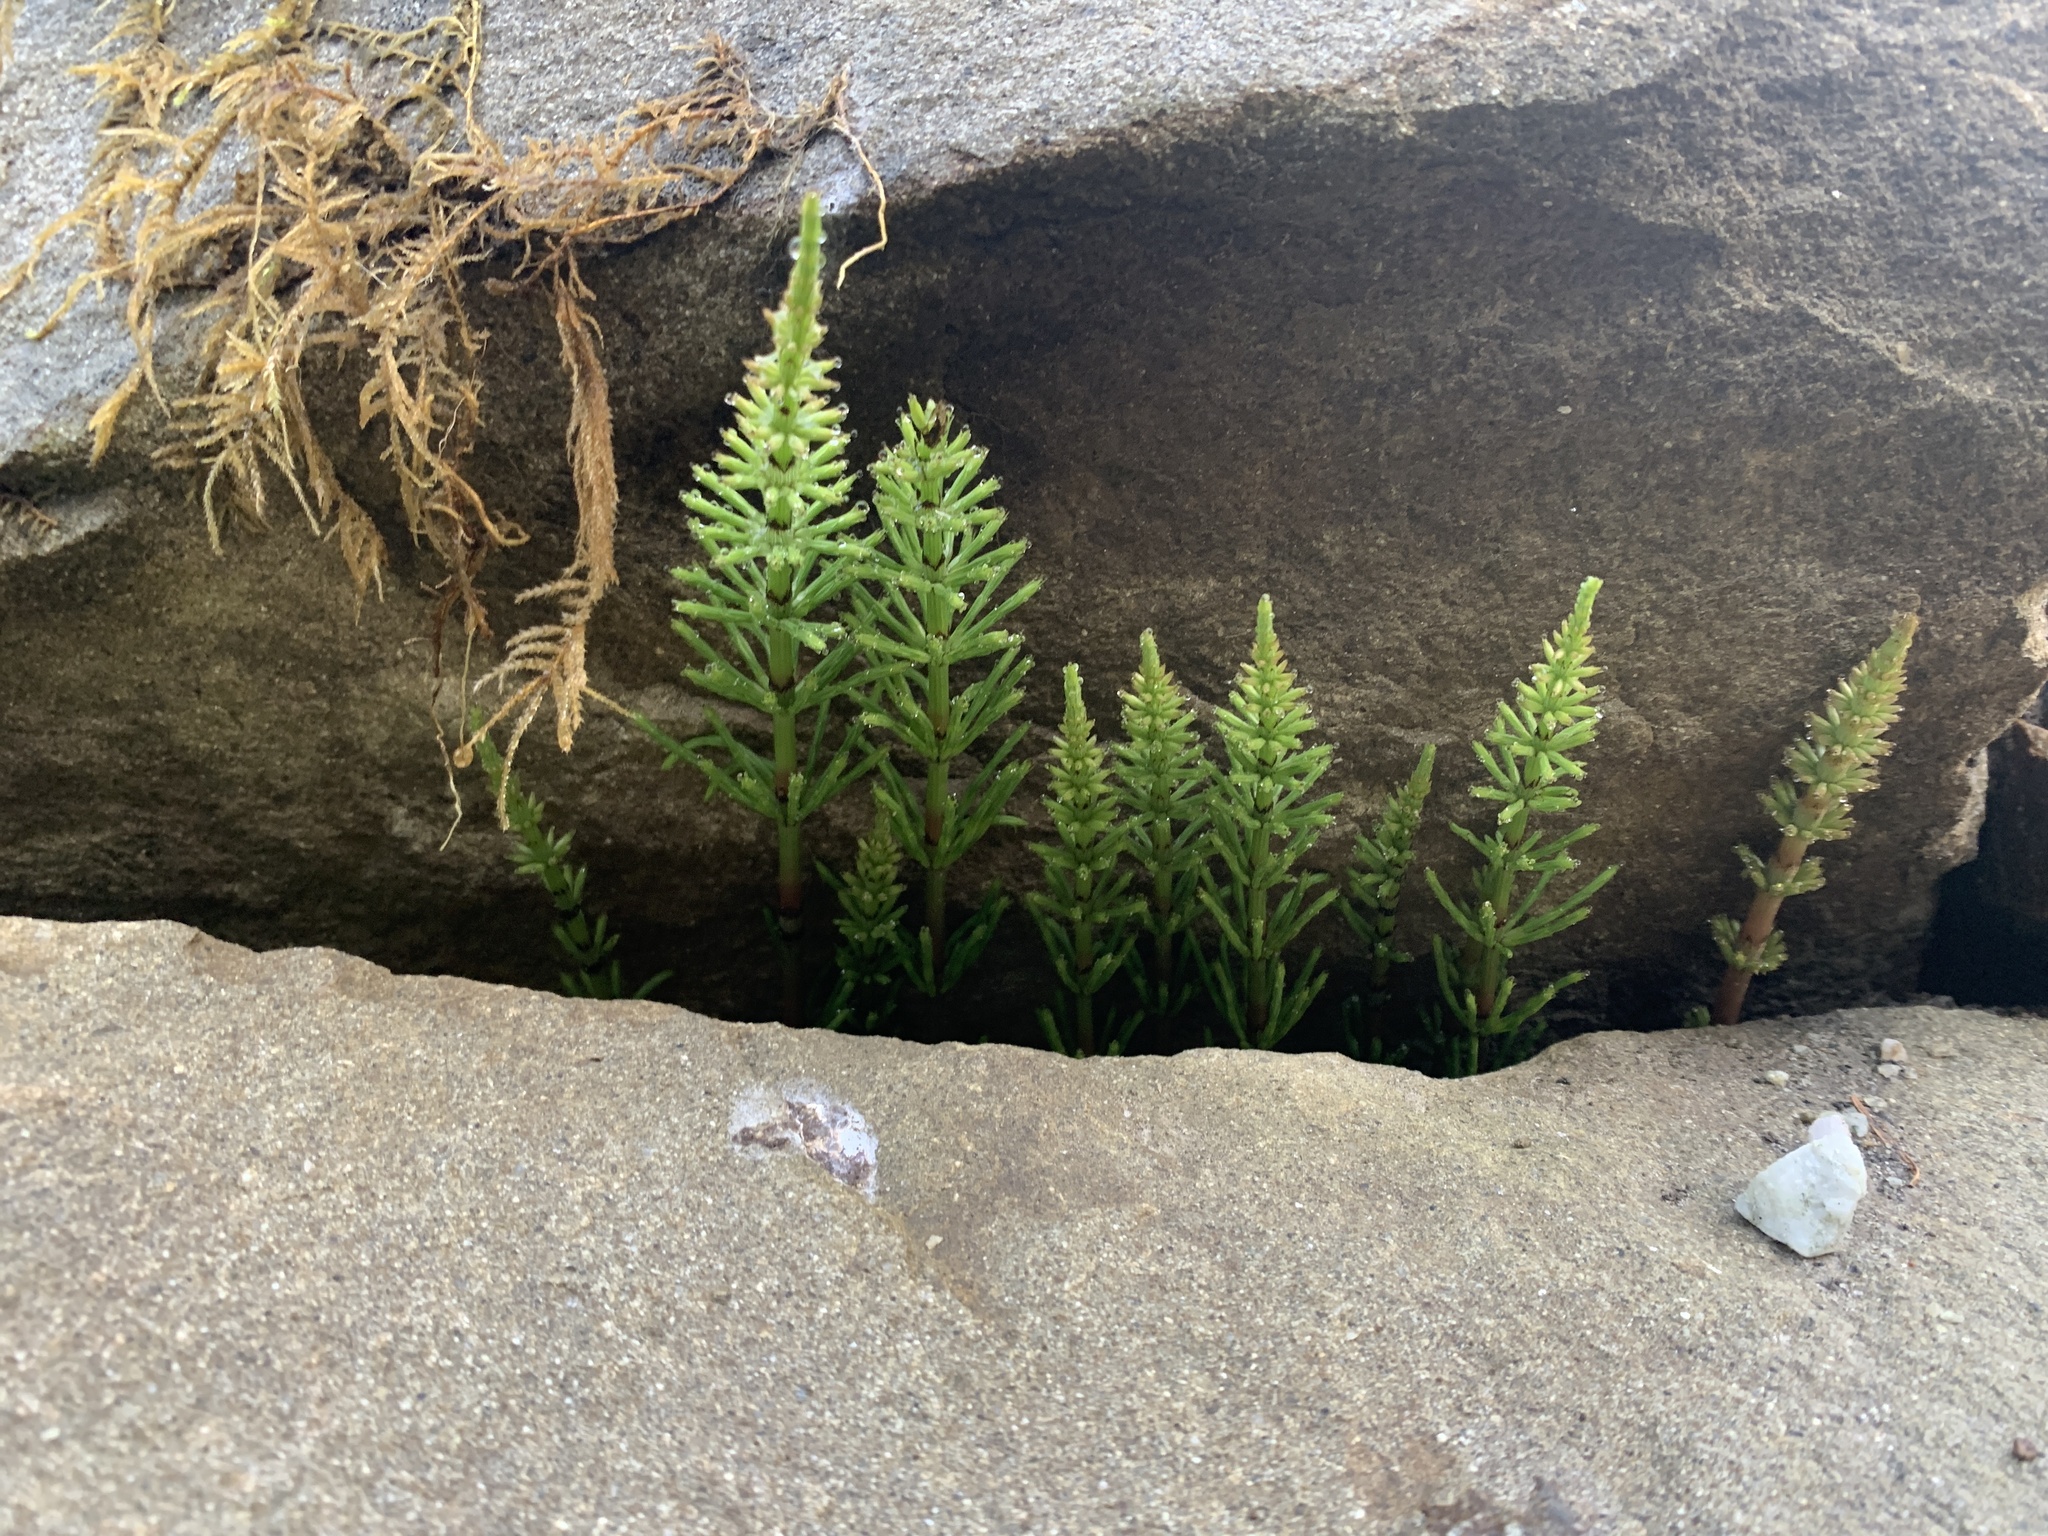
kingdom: Plantae
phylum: Tracheophyta
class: Polypodiopsida
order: Equisetales
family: Equisetaceae
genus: Equisetum
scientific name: Equisetum arvense
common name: Field horsetail
